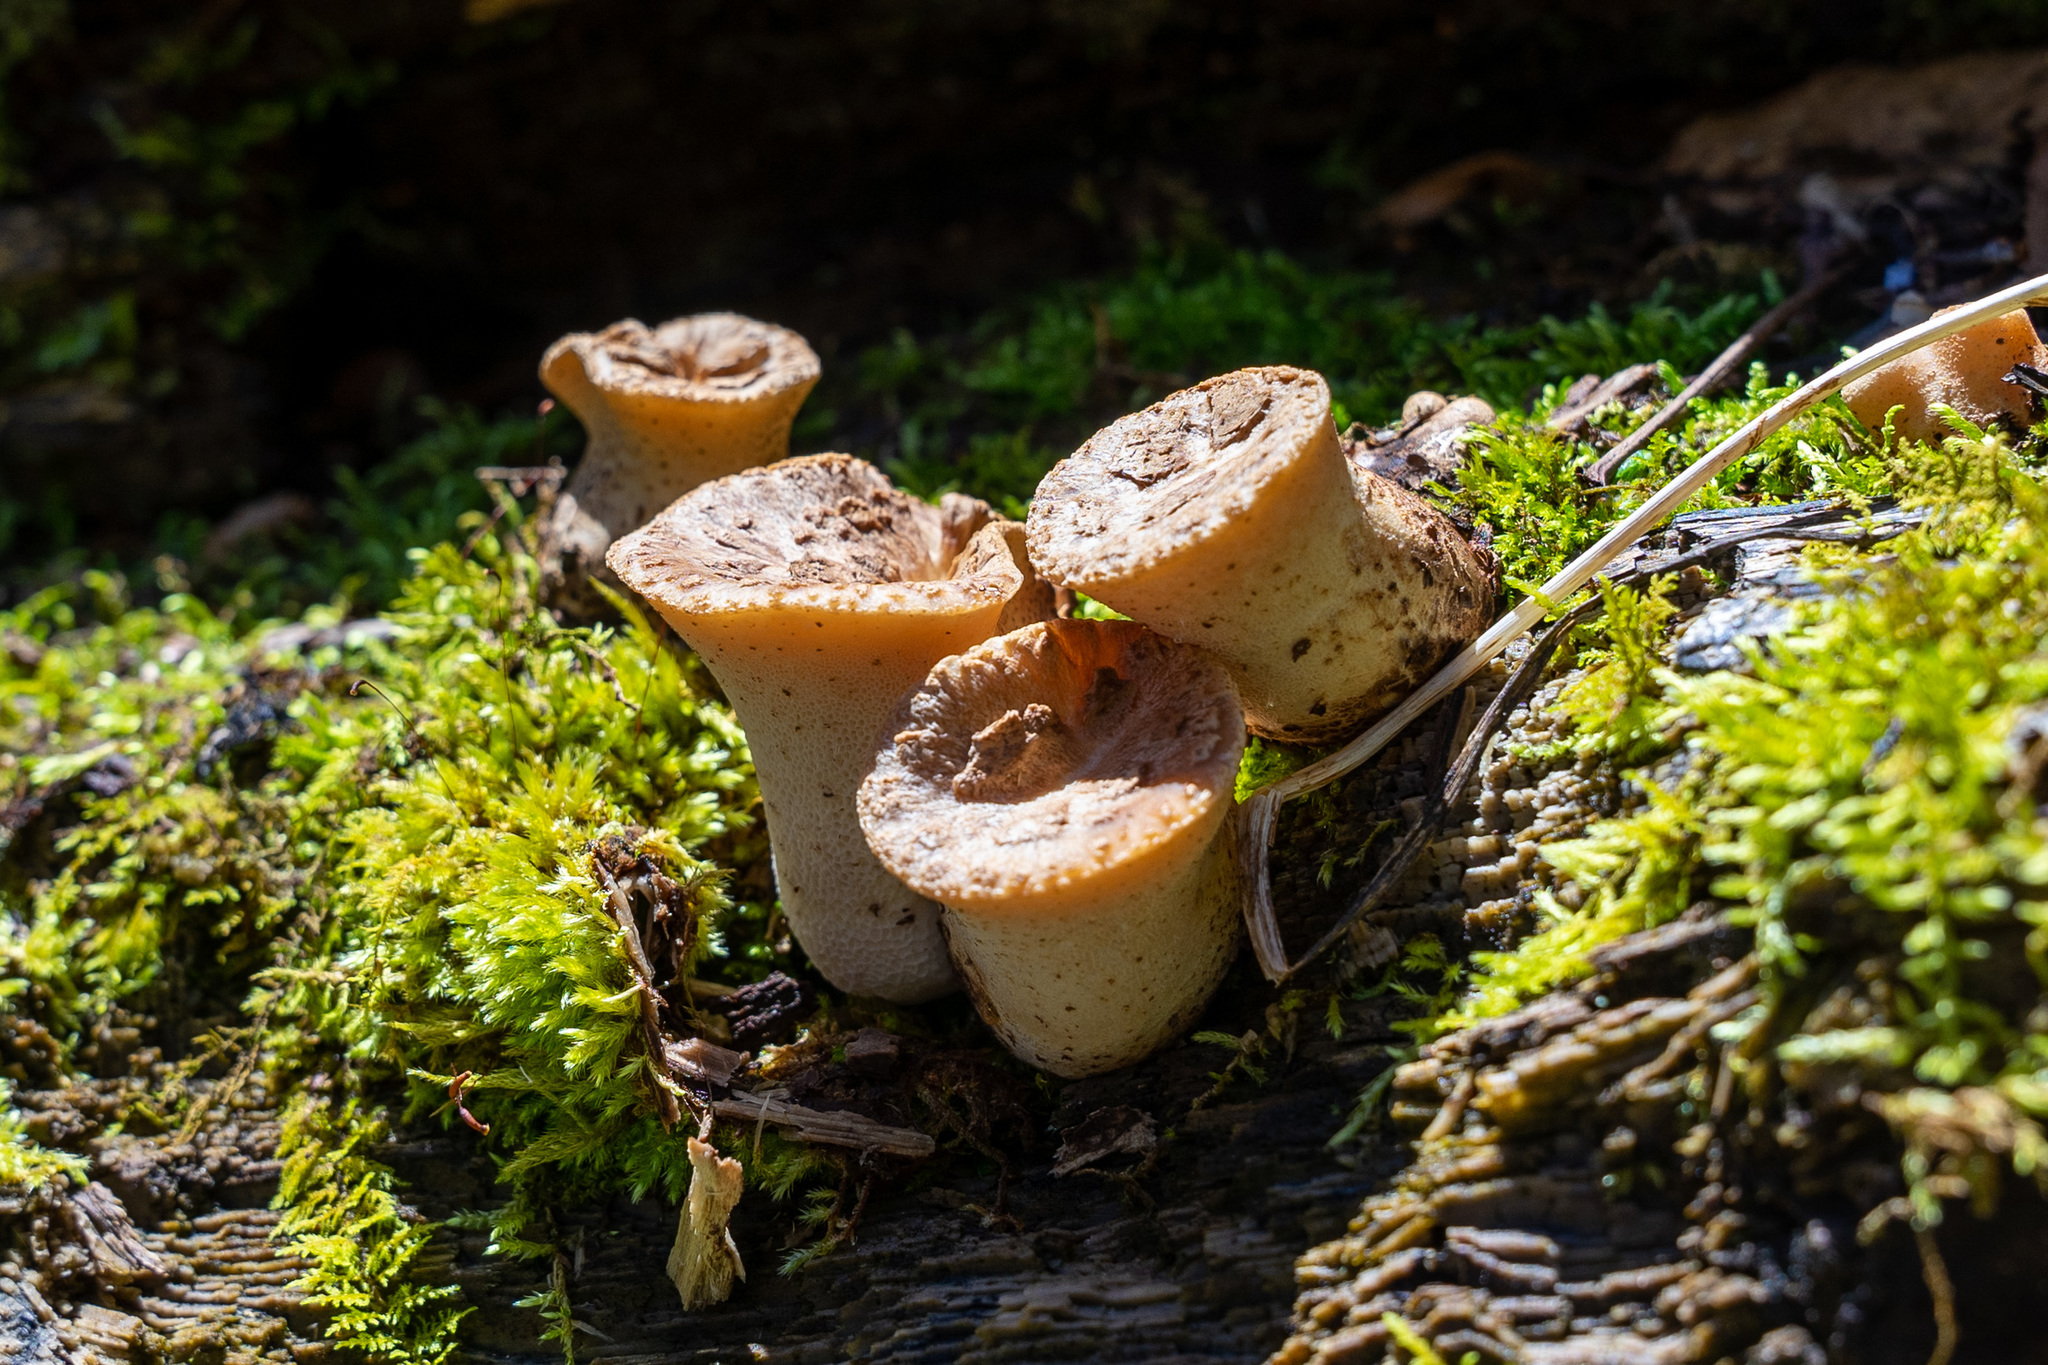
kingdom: Fungi
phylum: Basidiomycota
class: Agaricomycetes
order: Polyporales
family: Polyporaceae
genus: Cerioporus
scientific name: Cerioporus squamosus
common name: Dryad's saddle
